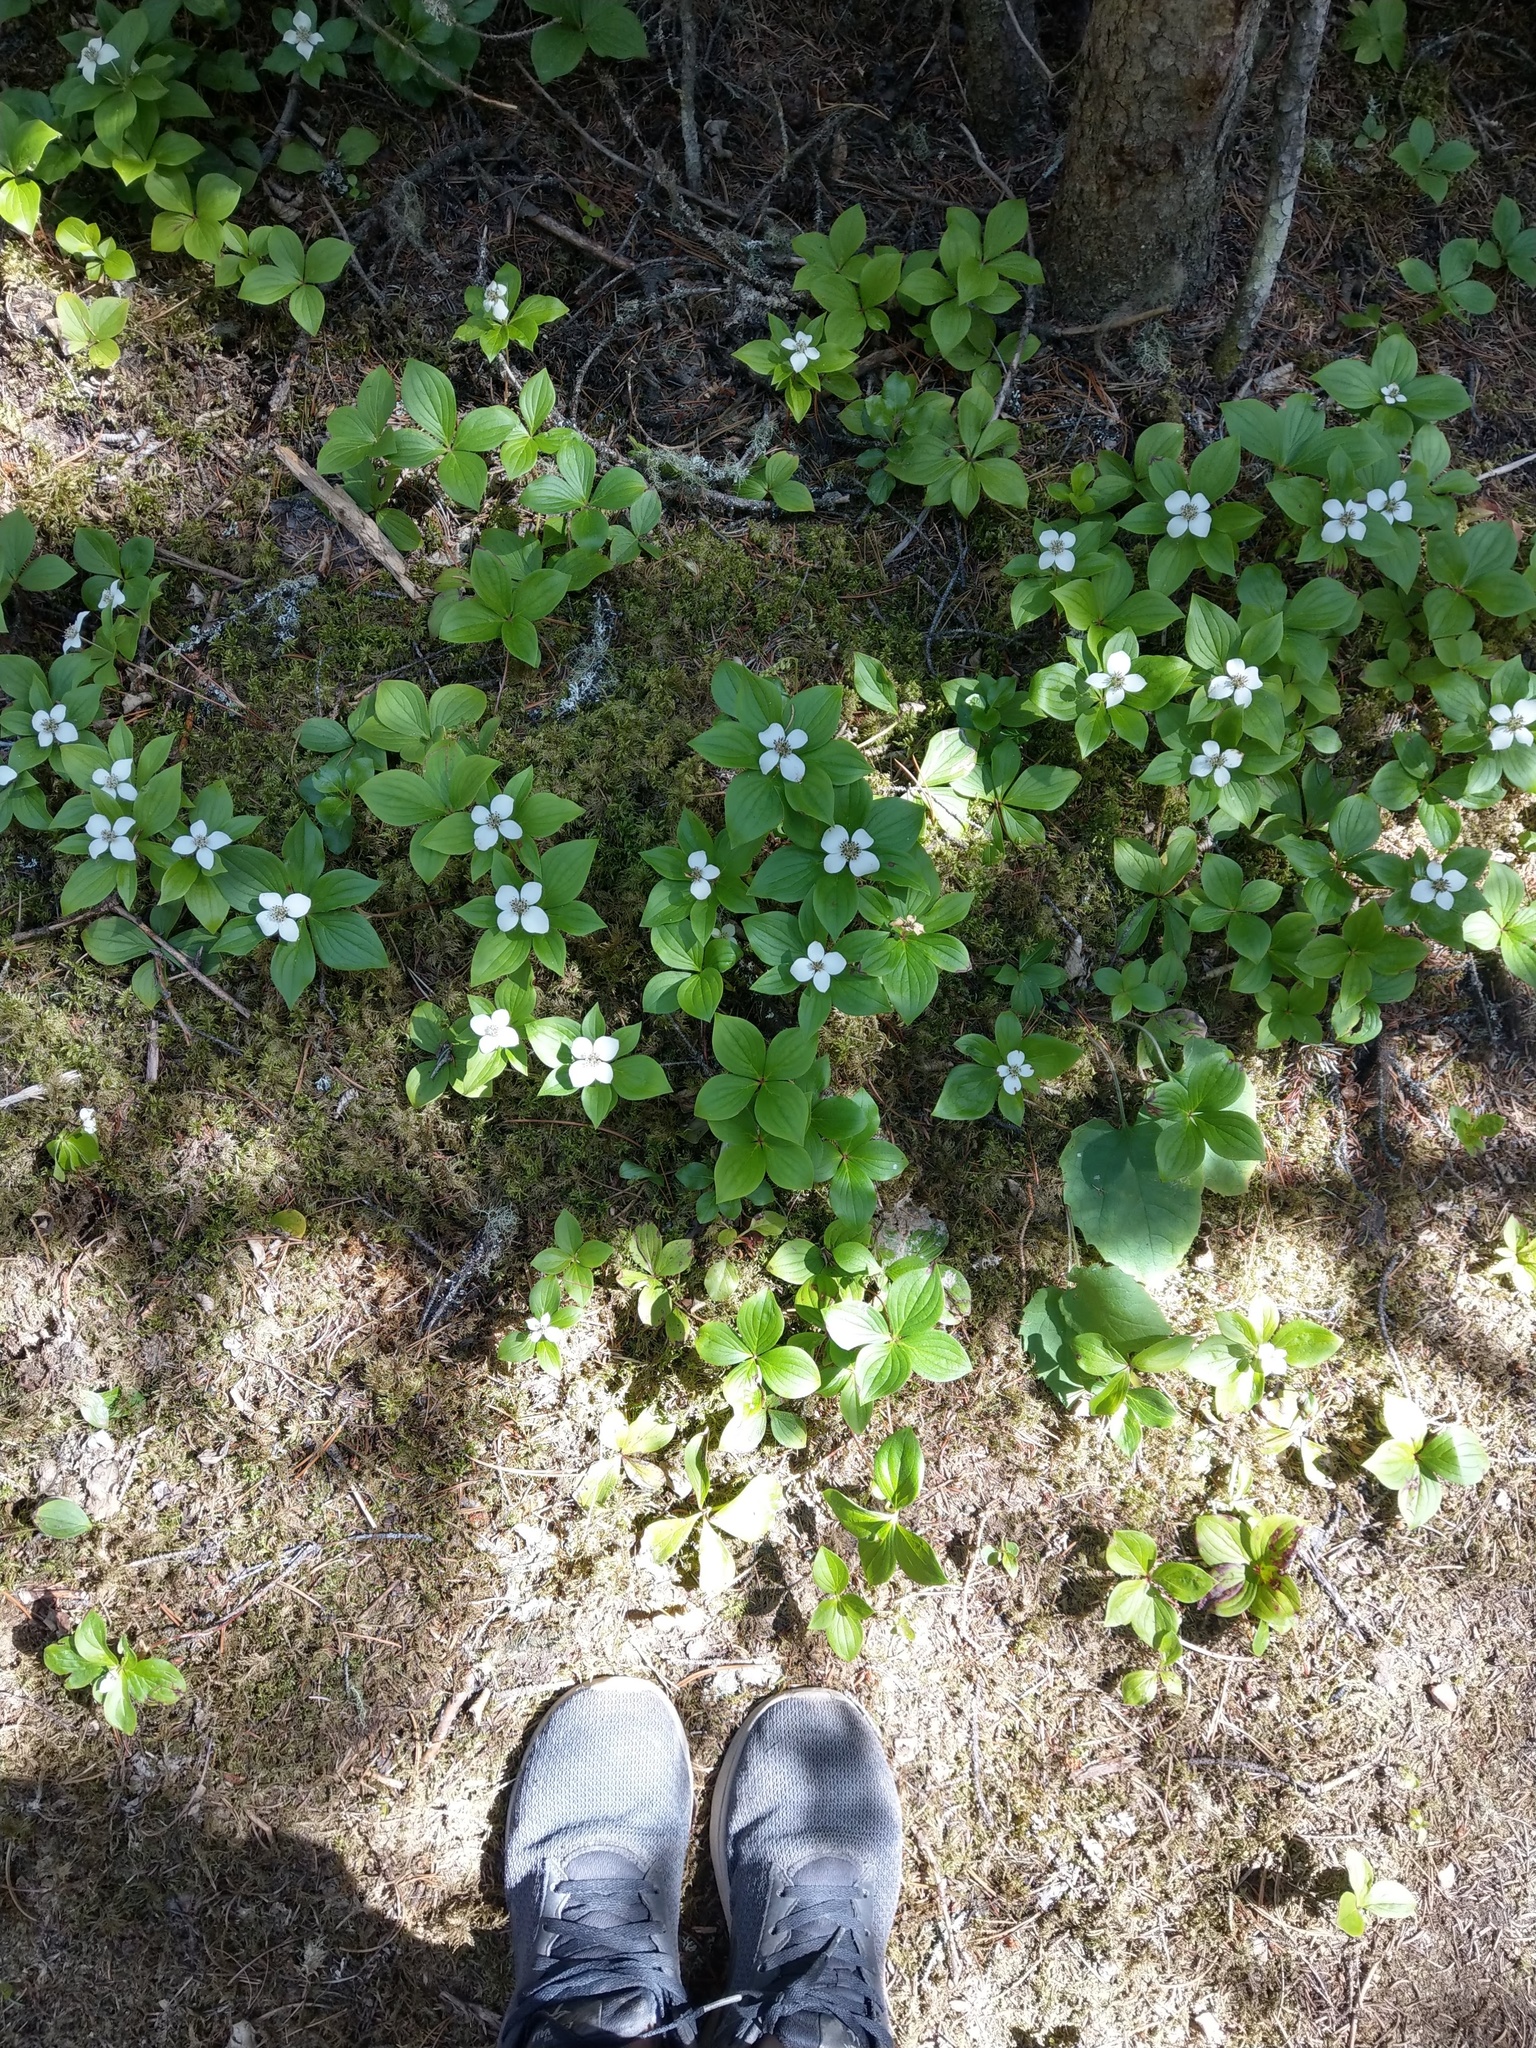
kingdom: Plantae
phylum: Tracheophyta
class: Magnoliopsida
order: Cornales
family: Cornaceae
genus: Cornus
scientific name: Cornus canadensis
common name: Creeping dogwood
